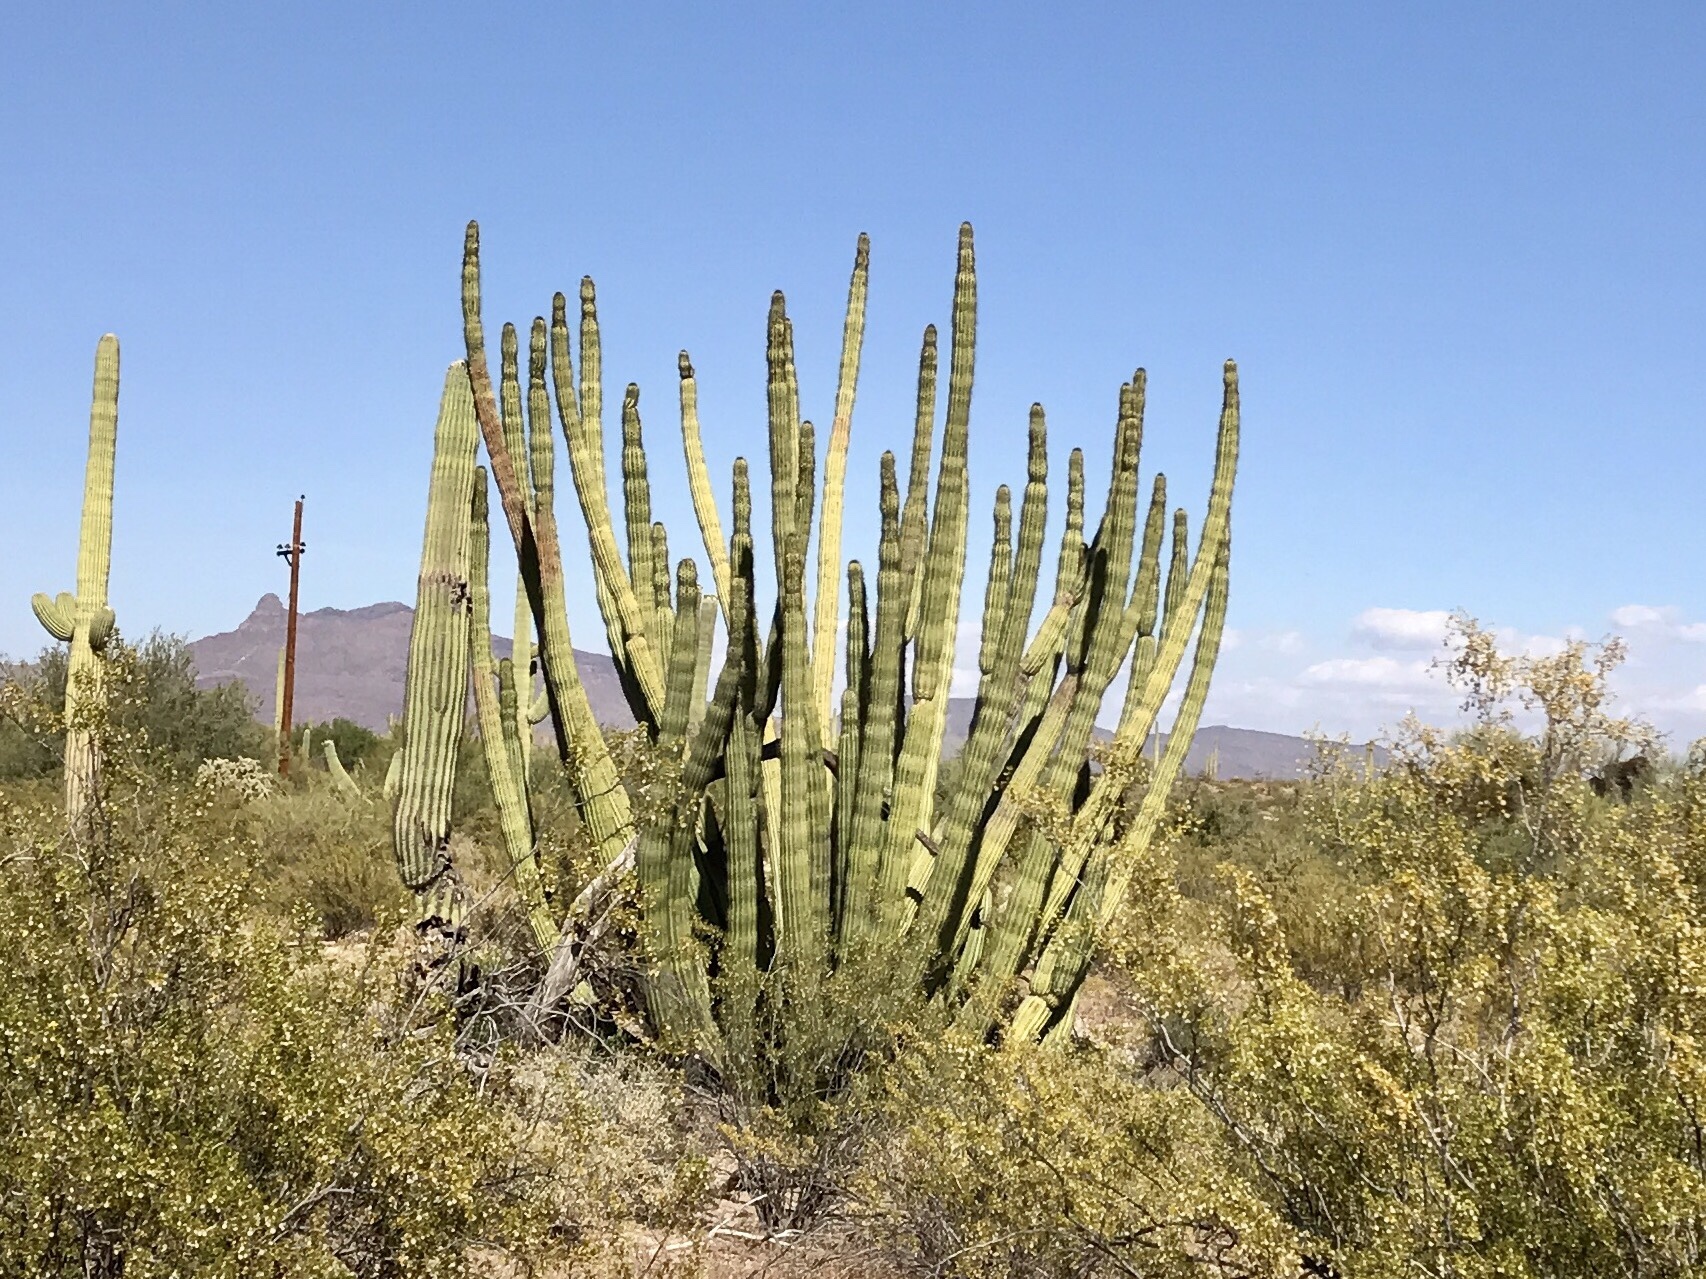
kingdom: Plantae
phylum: Tracheophyta
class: Magnoliopsida
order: Caryophyllales
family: Cactaceae
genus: Stenocereus
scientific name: Stenocereus thurberi
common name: Organ pipe cactus
